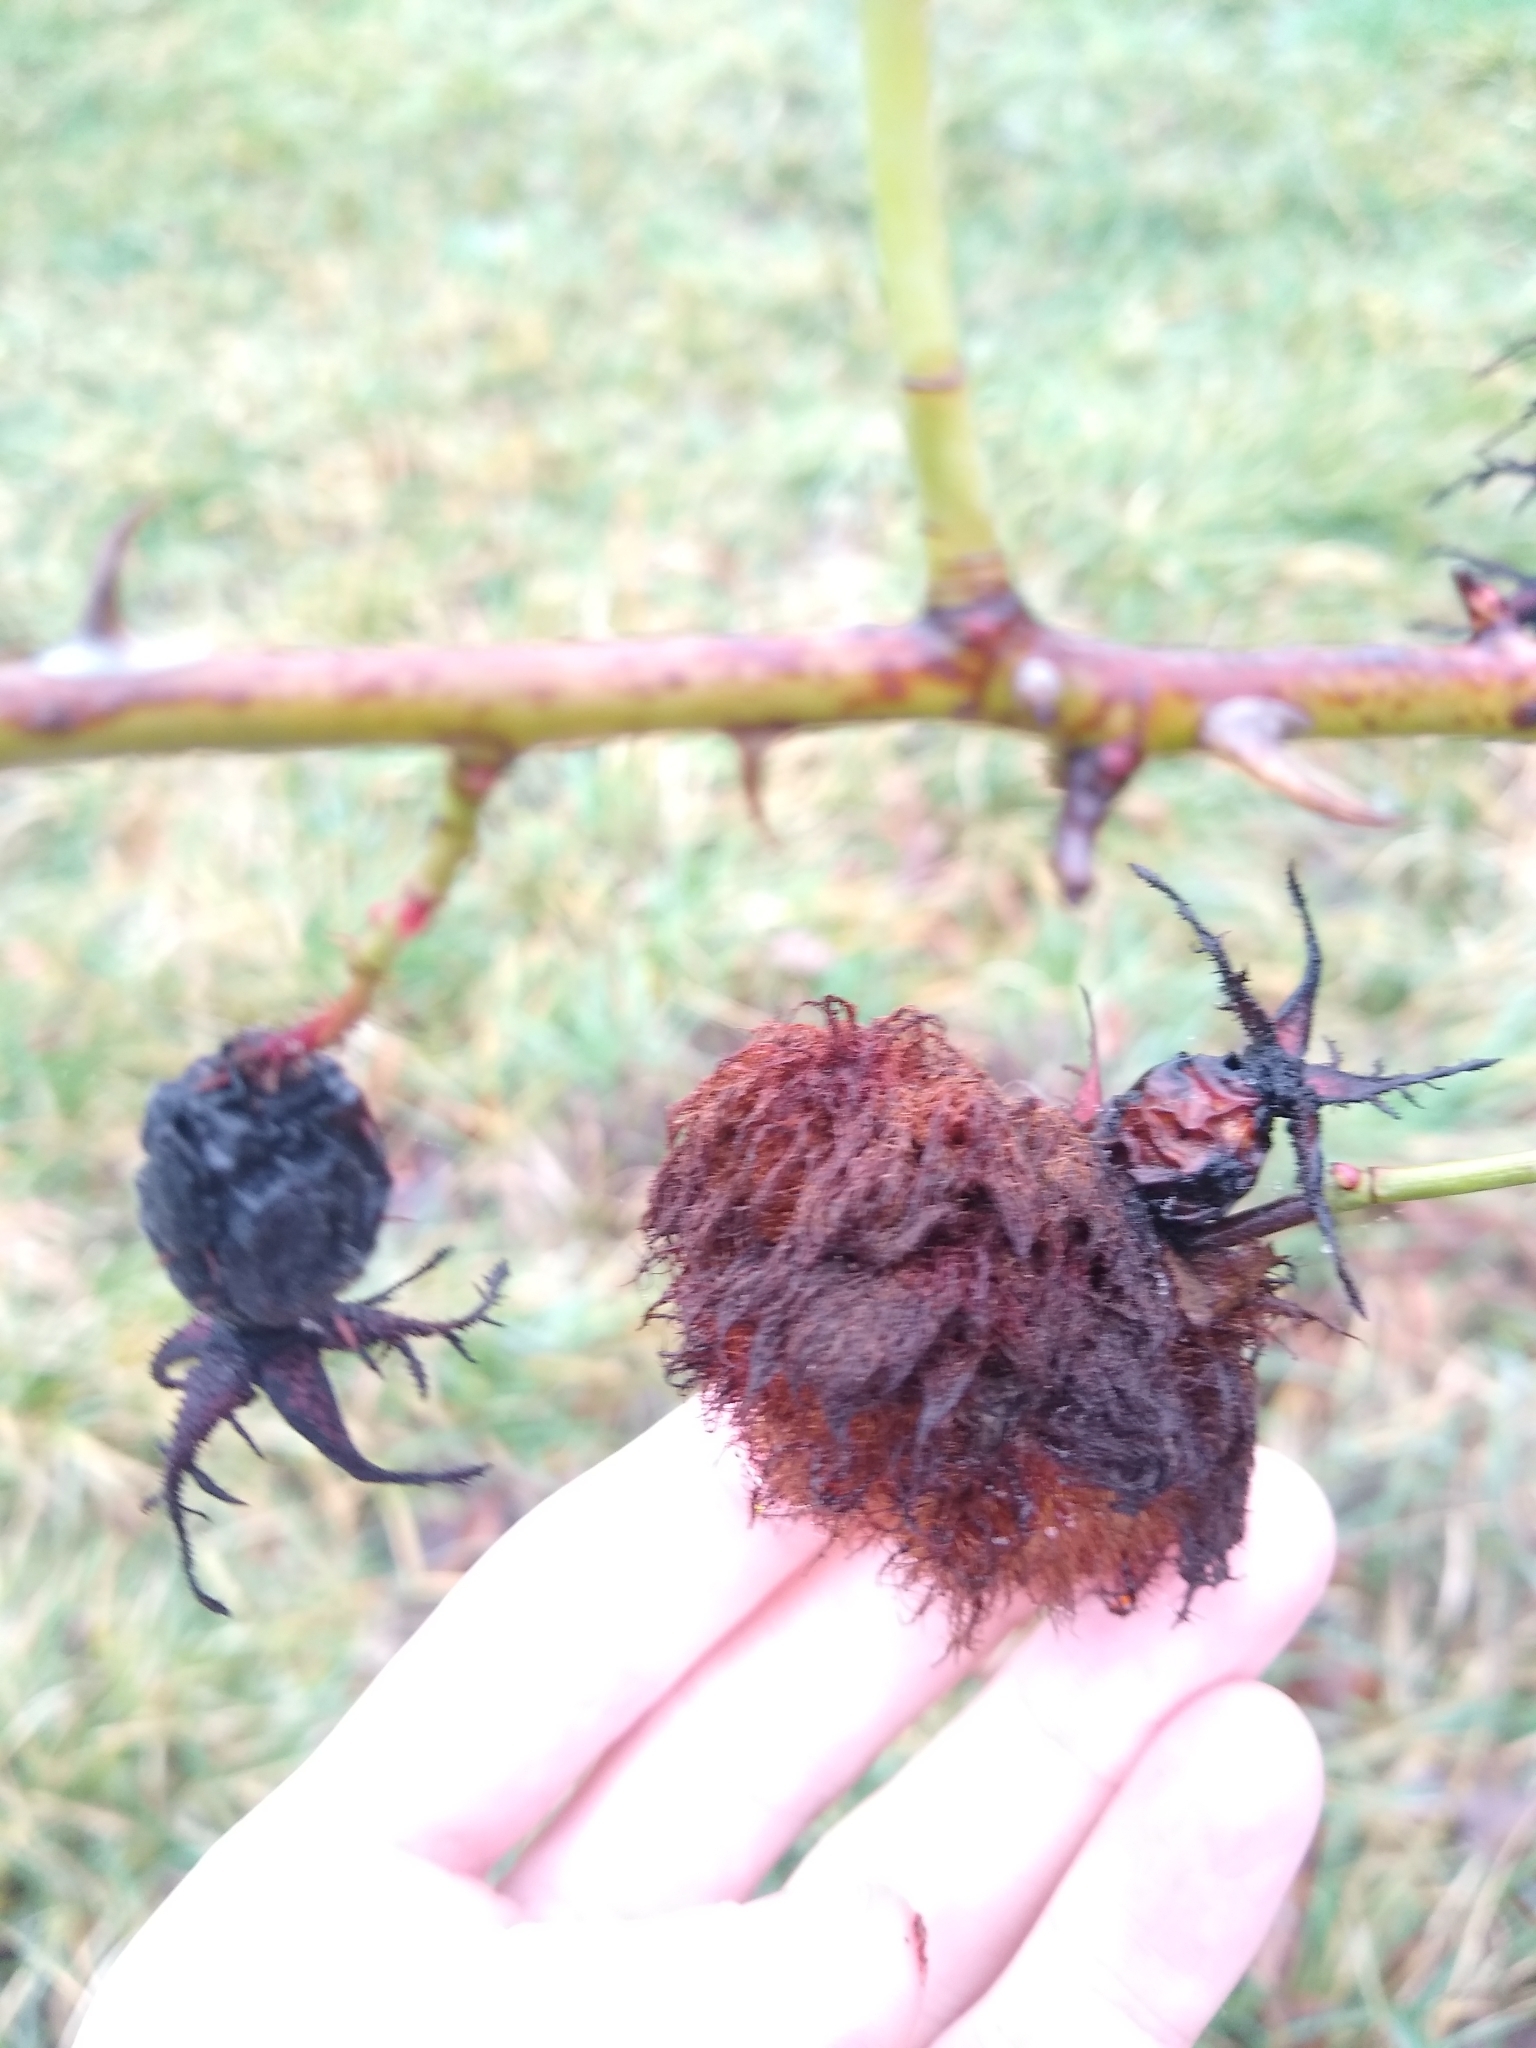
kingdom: Animalia
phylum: Arthropoda
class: Insecta
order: Hymenoptera
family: Cynipidae
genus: Diplolepis
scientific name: Diplolepis rosae
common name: Bedeguar gall
